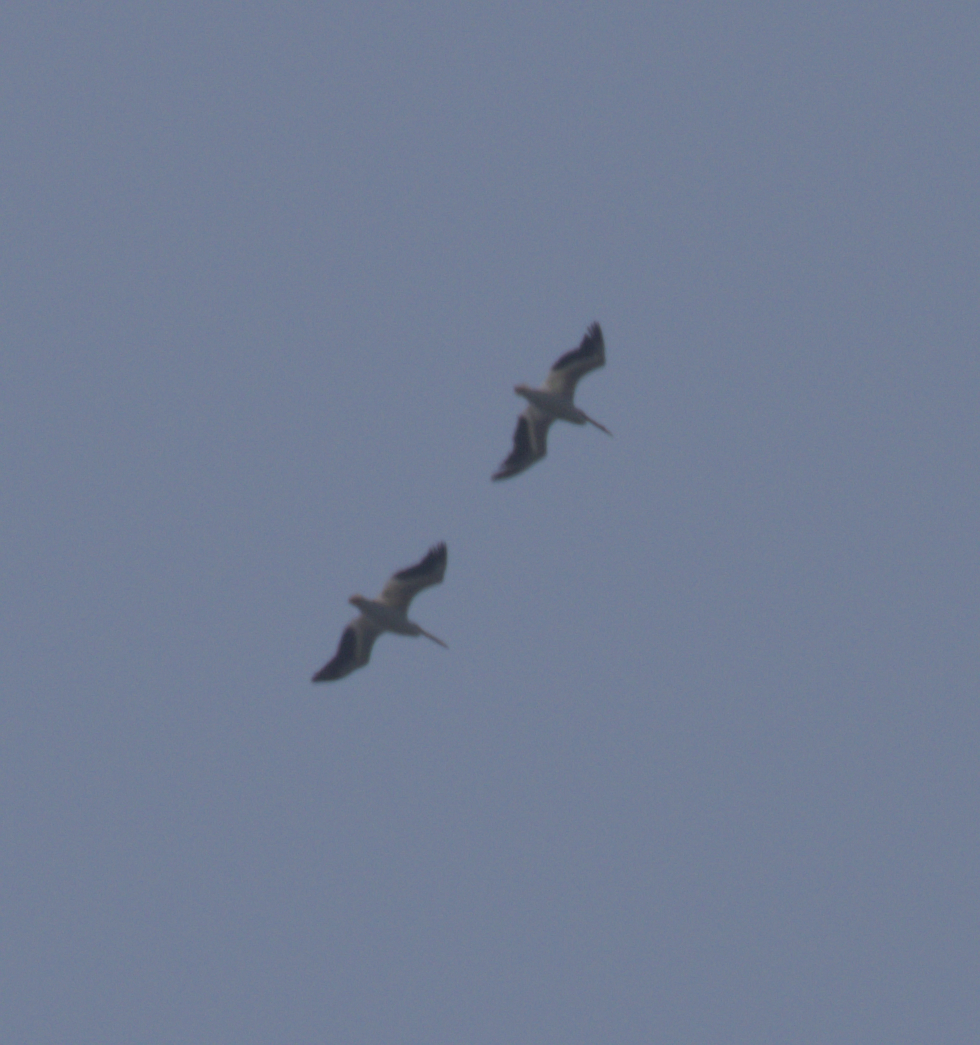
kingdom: Animalia
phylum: Chordata
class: Aves
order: Pelecaniformes
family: Pelecanidae
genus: Pelecanus
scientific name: Pelecanus erythrorhynchos
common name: American white pelican
